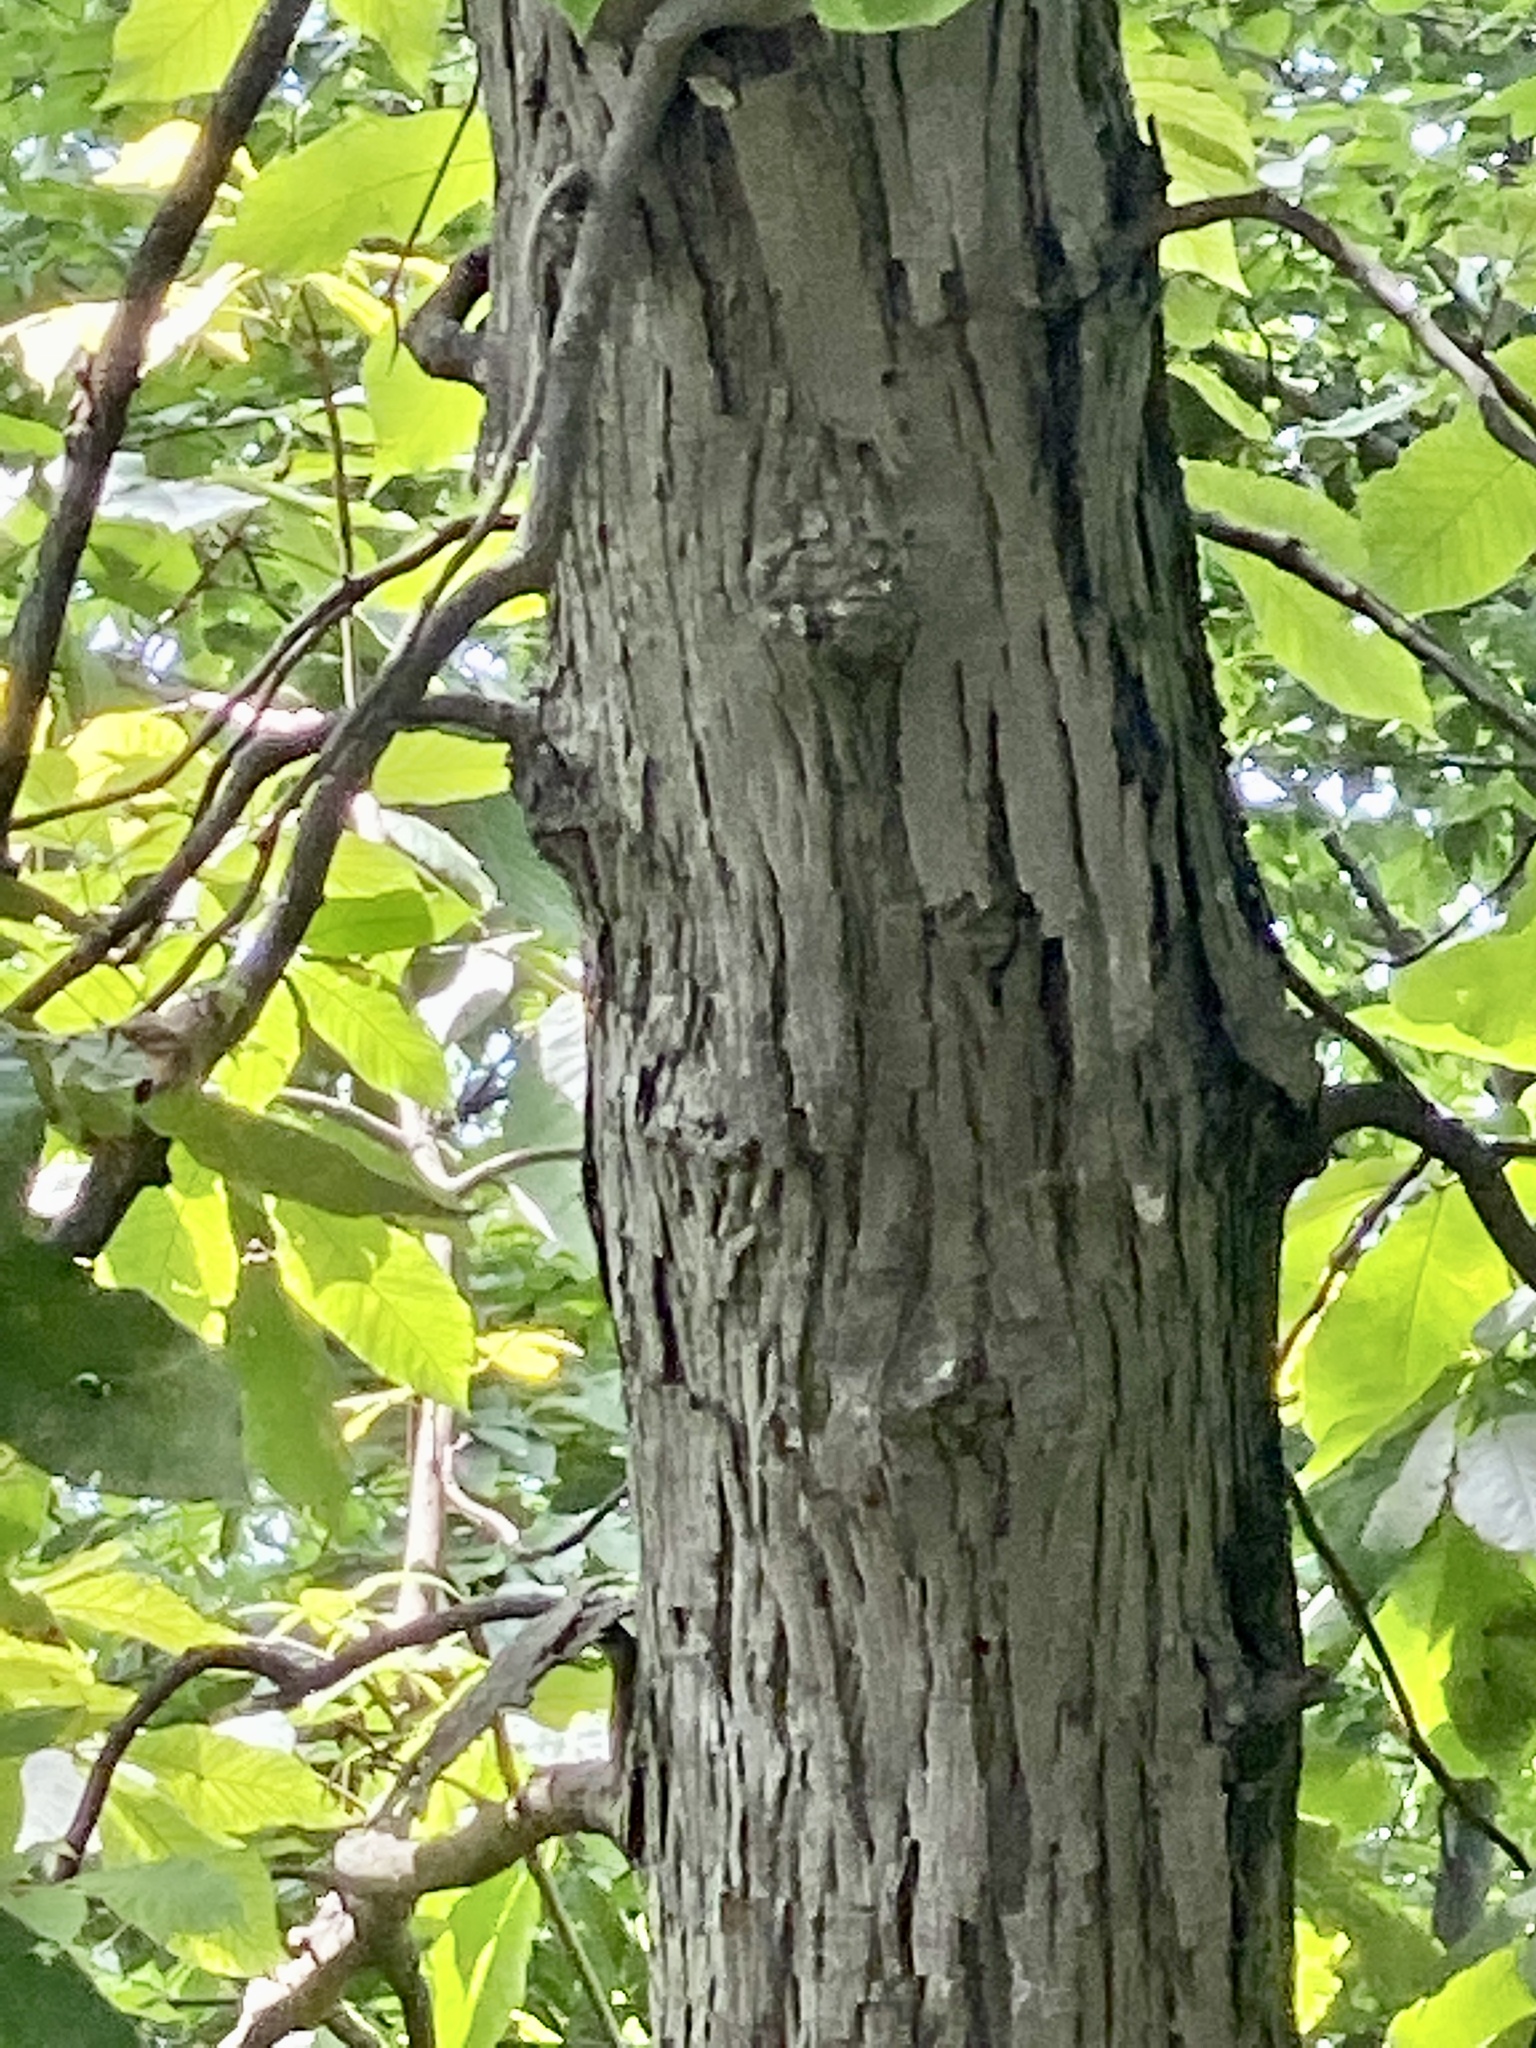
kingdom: Plantae
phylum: Tracheophyta
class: Magnoliopsida
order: Fagales
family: Juglandaceae
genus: Carya
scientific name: Carya ovata
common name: Shagbark hickory
